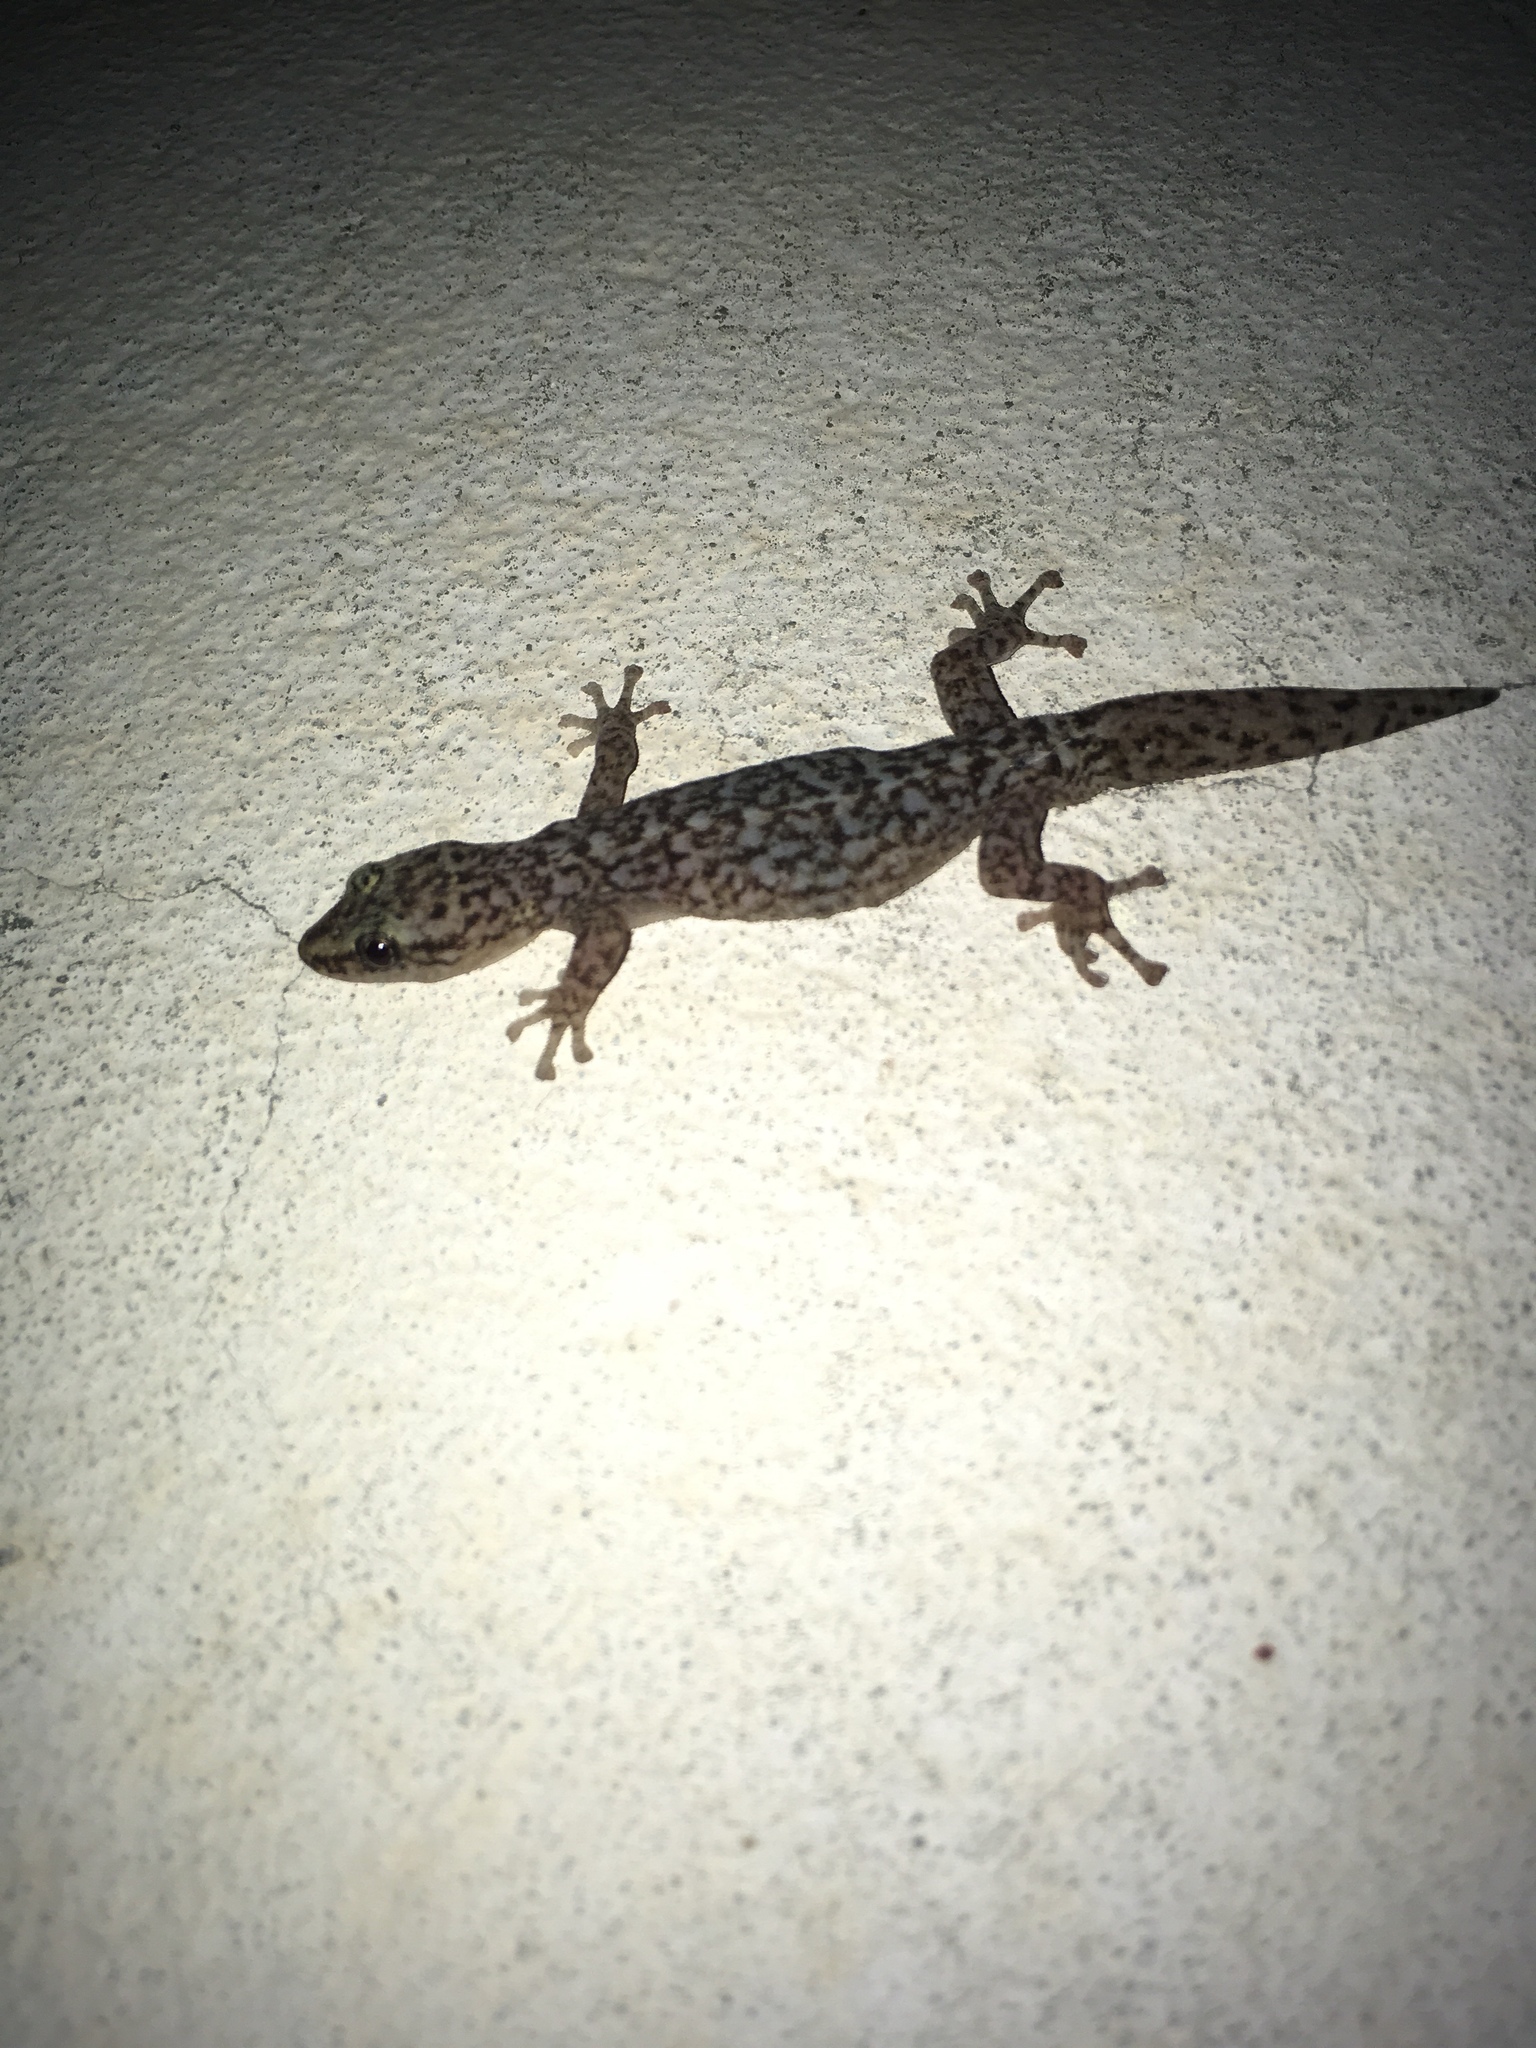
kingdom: Animalia
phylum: Chordata
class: Squamata
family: Gekkonidae
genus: Afrogecko
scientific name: Afrogecko porphyreus
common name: Marbled leaf-toed gecko
